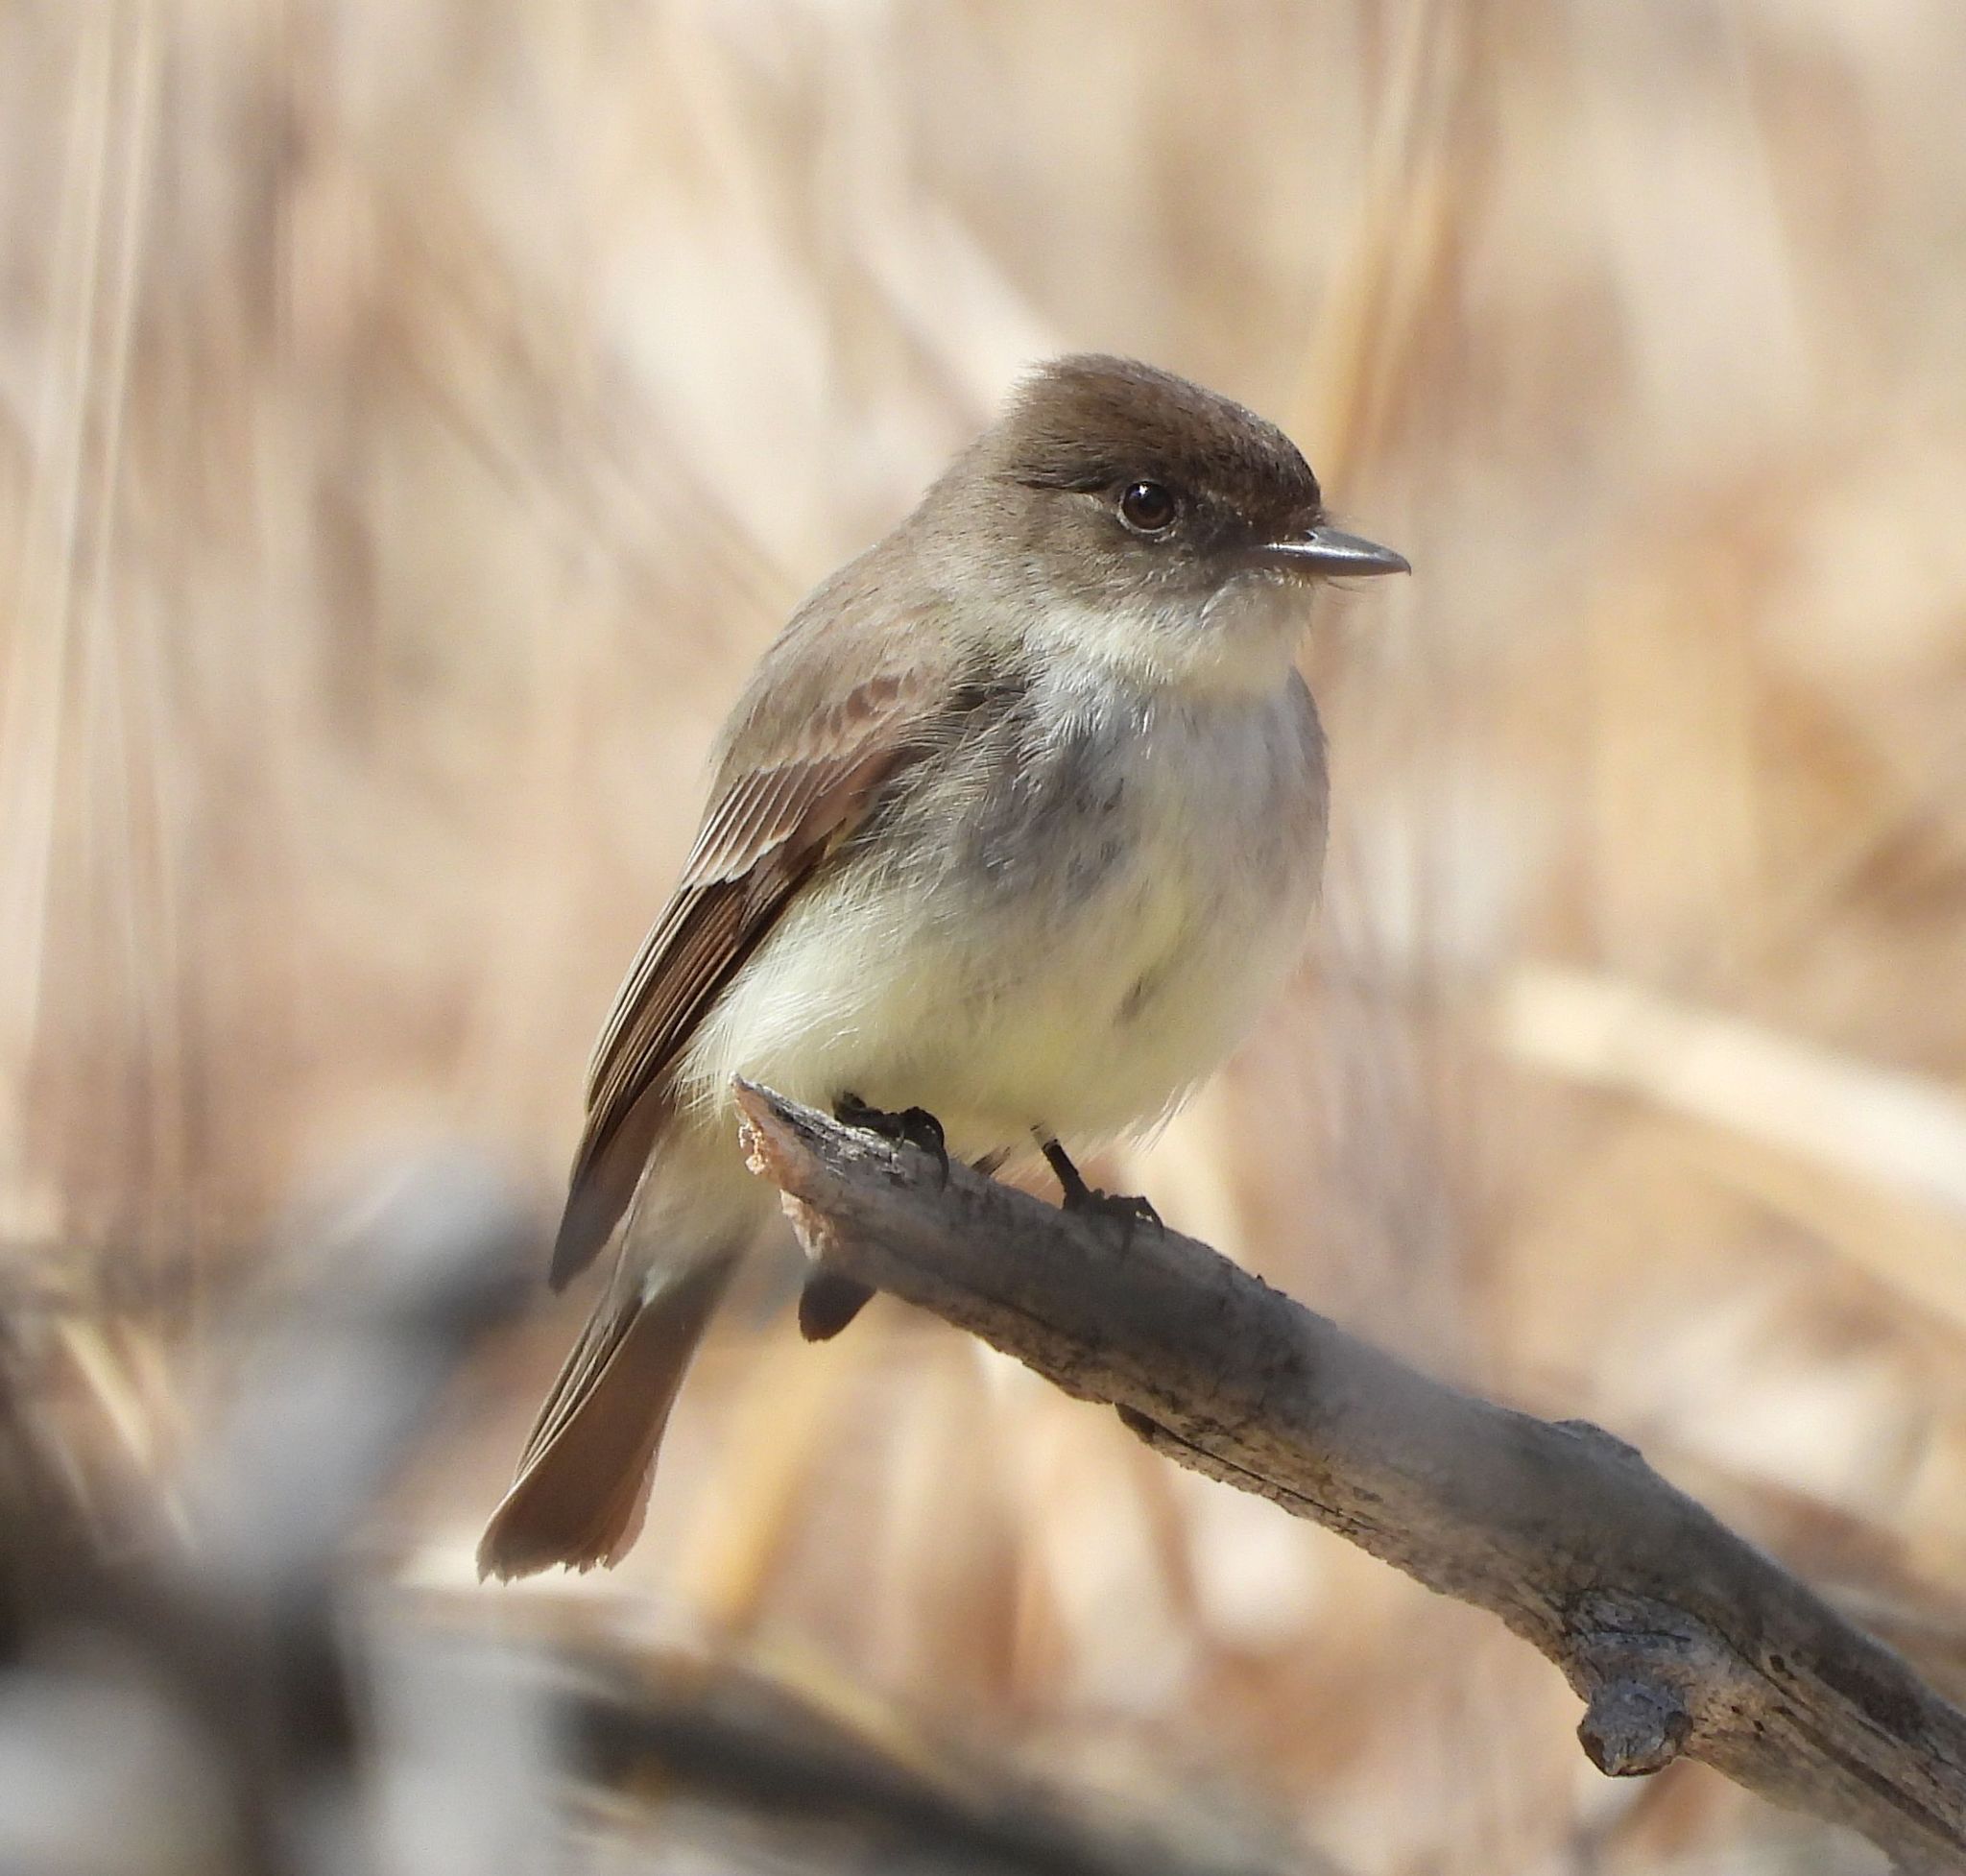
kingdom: Animalia
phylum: Chordata
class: Aves
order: Passeriformes
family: Tyrannidae
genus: Sayornis
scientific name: Sayornis phoebe
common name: Eastern phoebe
